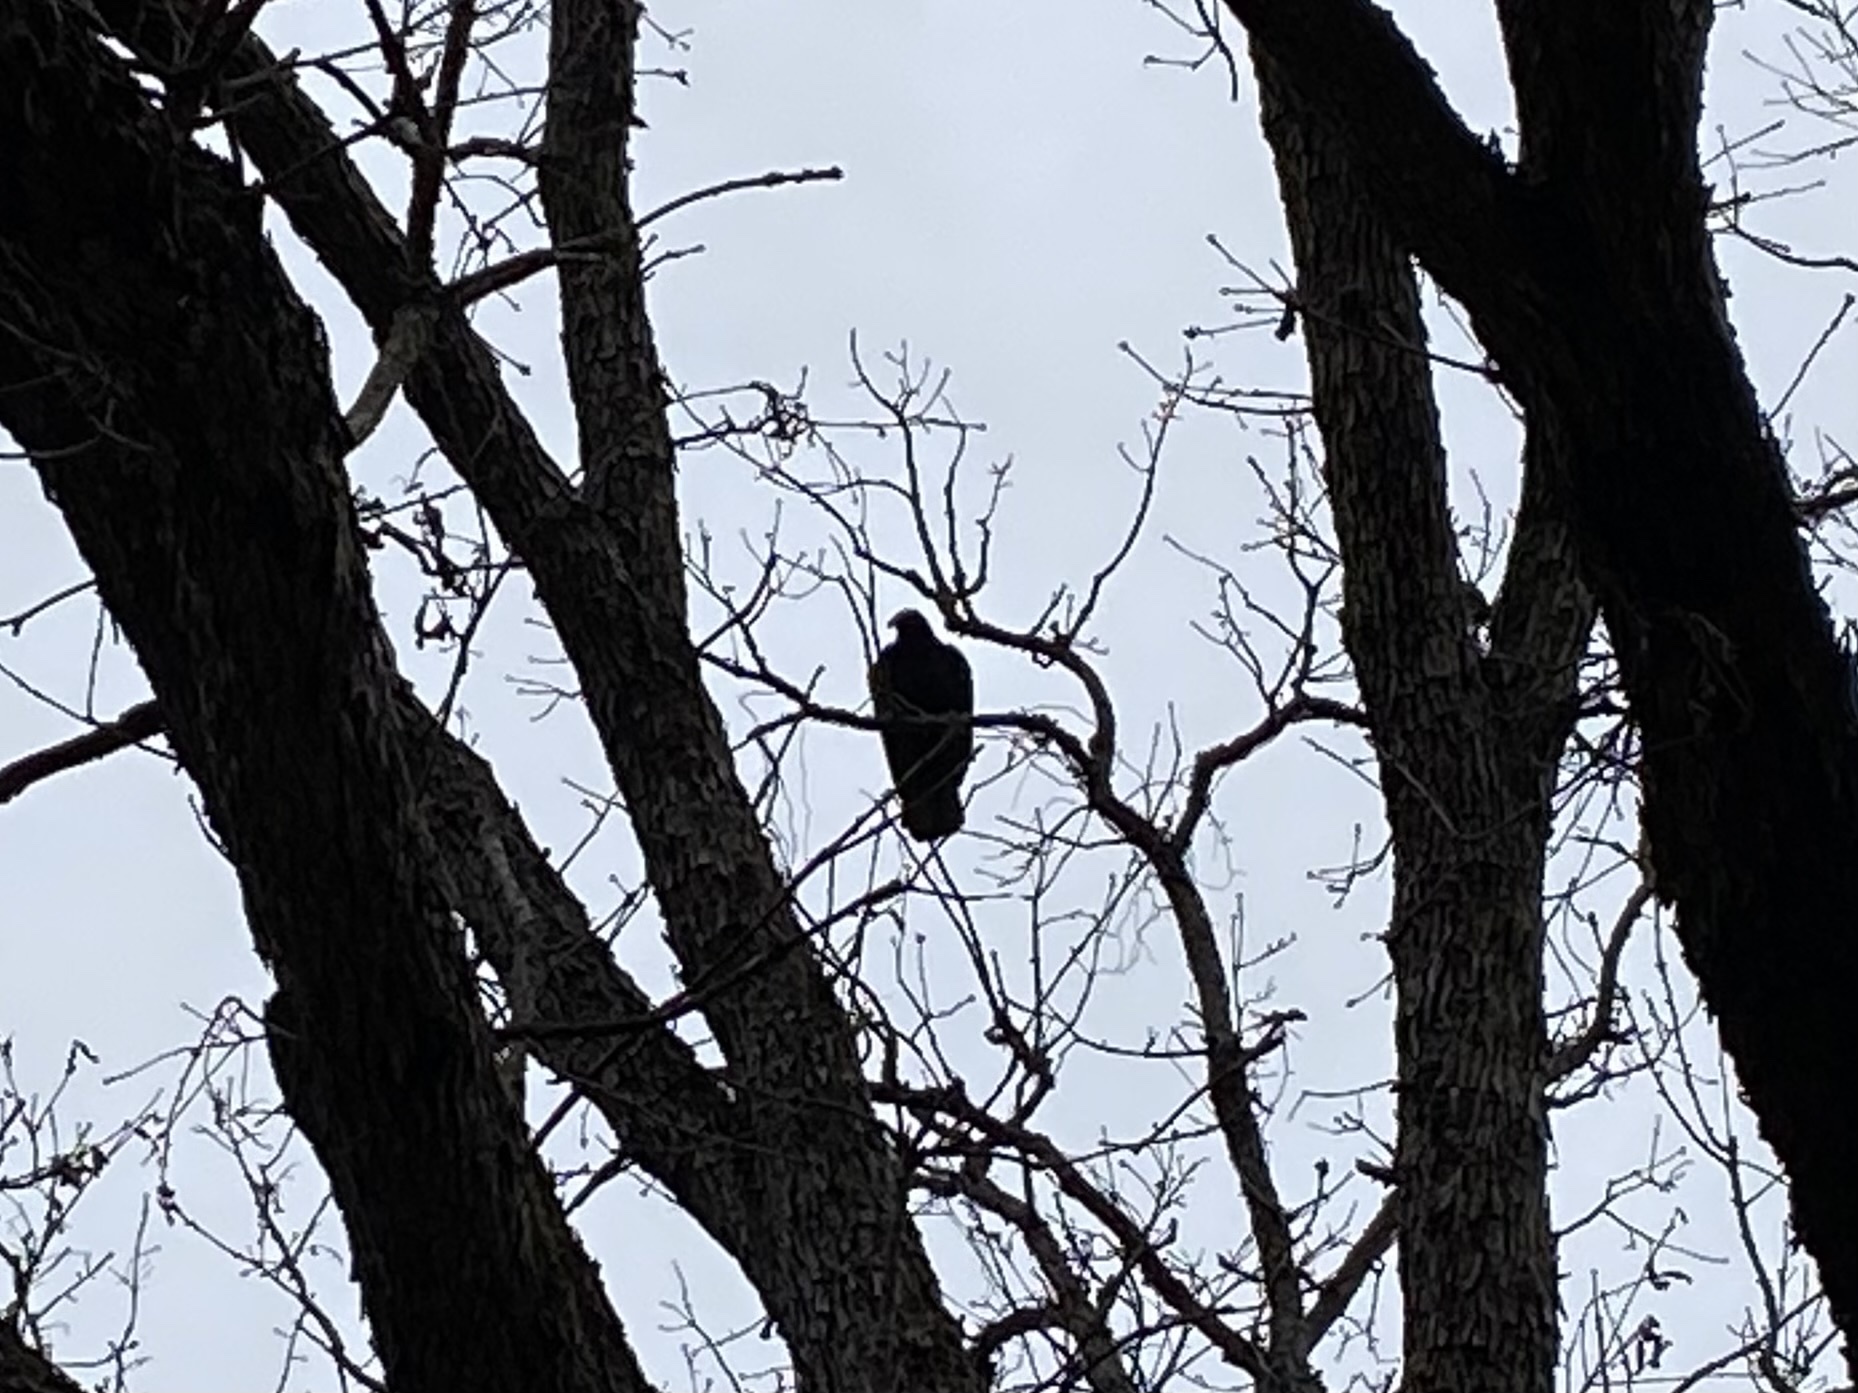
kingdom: Animalia
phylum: Chordata
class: Aves
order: Accipitriformes
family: Cathartidae
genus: Cathartes
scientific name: Cathartes aura
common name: Turkey vulture
